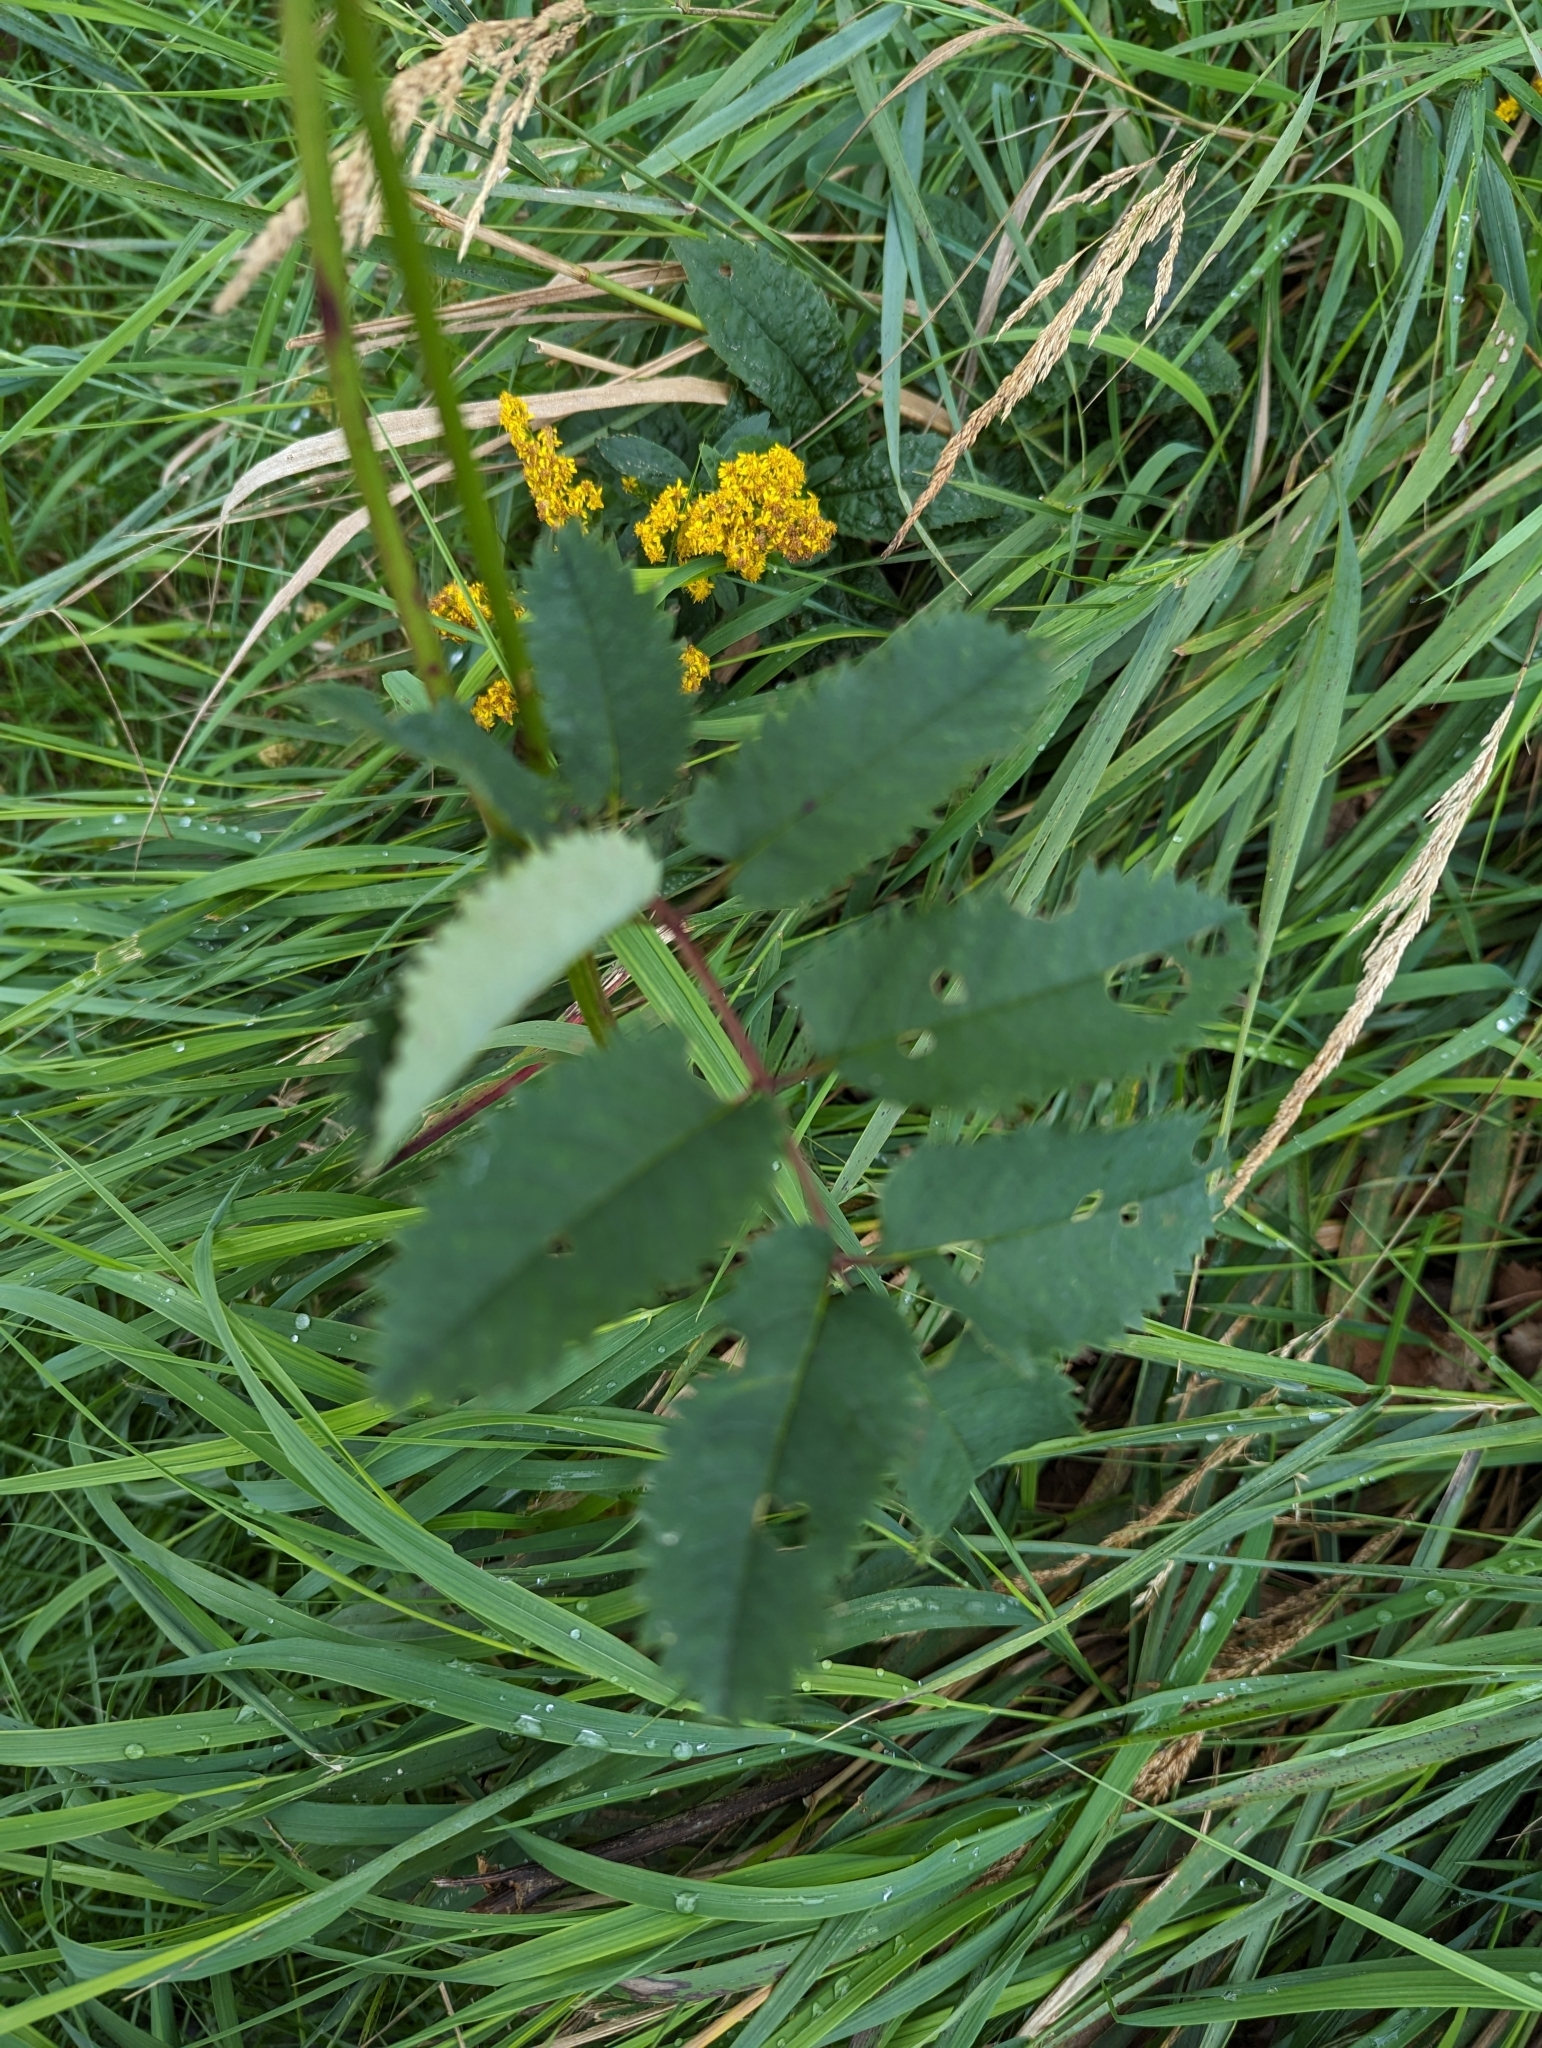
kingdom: Plantae
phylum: Tracheophyta
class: Magnoliopsida
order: Rosales
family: Rosaceae
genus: Sanguisorba
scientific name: Sanguisorba canadensis
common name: White burnet
